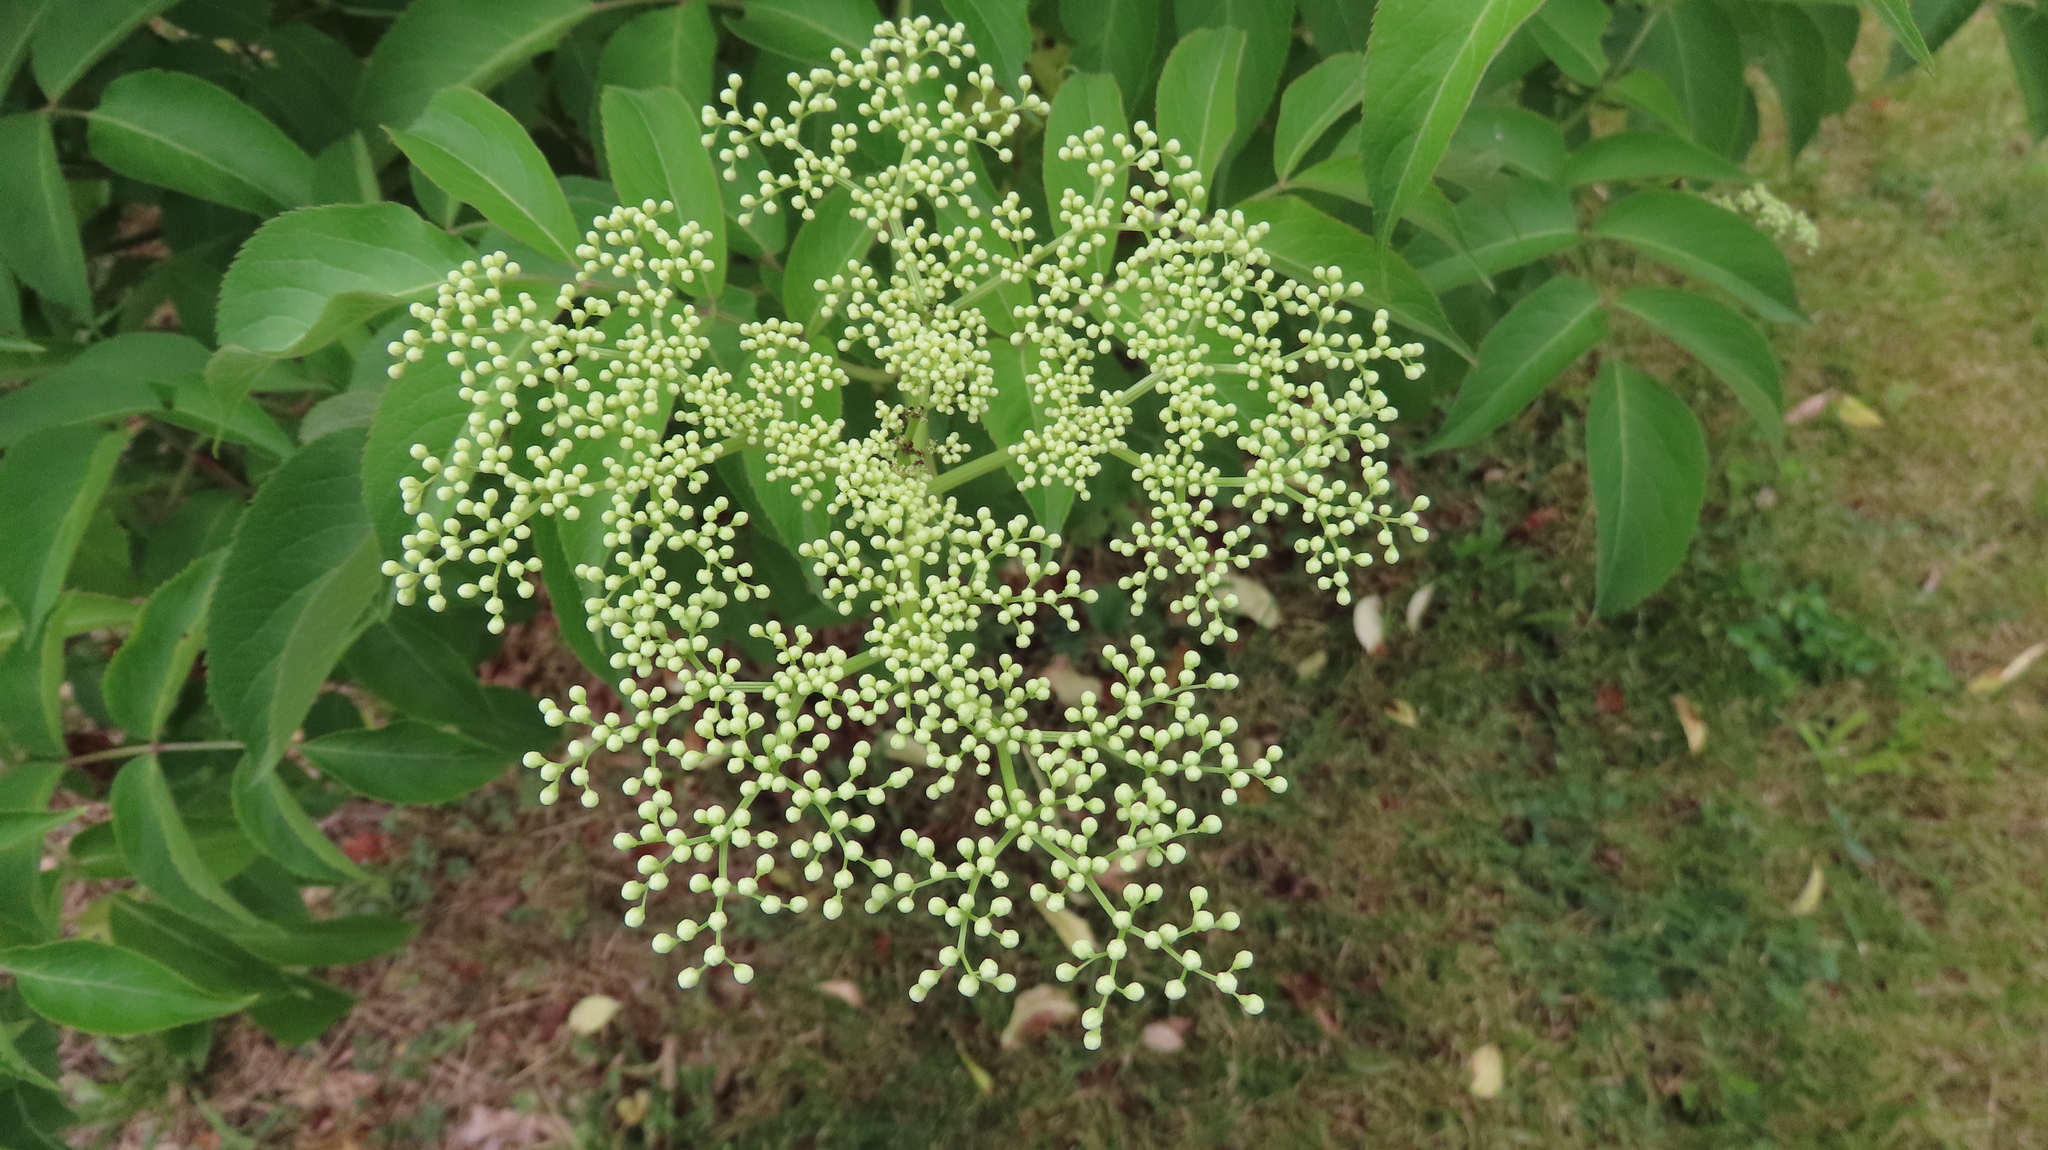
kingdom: Plantae
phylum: Tracheophyta
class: Magnoliopsida
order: Dipsacales
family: Viburnaceae
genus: Sambucus
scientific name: Sambucus canadensis
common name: American elder
